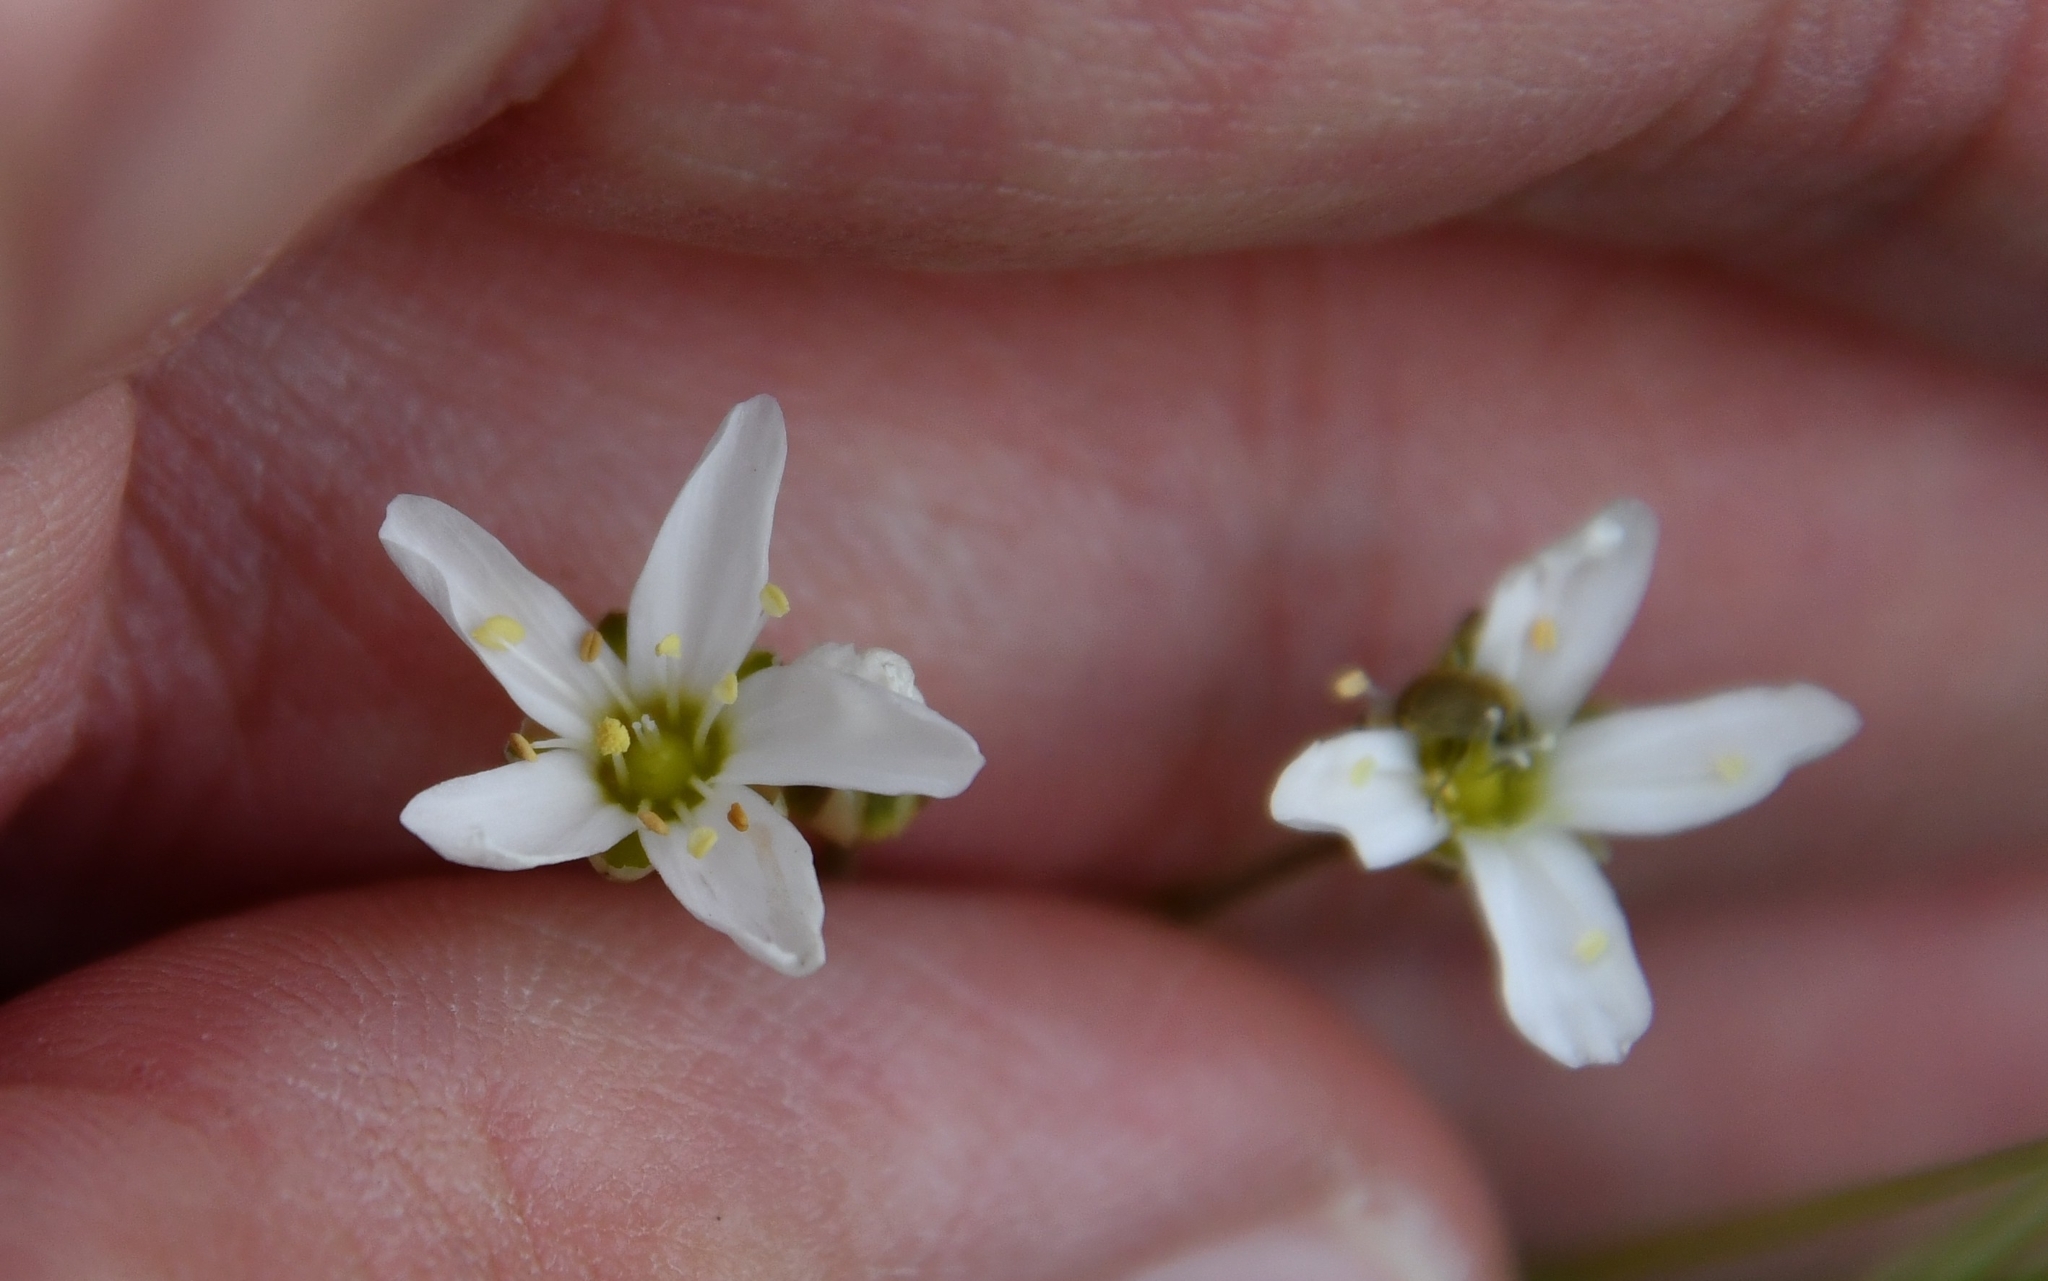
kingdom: Plantae
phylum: Tracheophyta
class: Magnoliopsida
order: Caryophyllales
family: Caryophyllaceae
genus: Eremogone
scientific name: Eremogone biebersteinii
